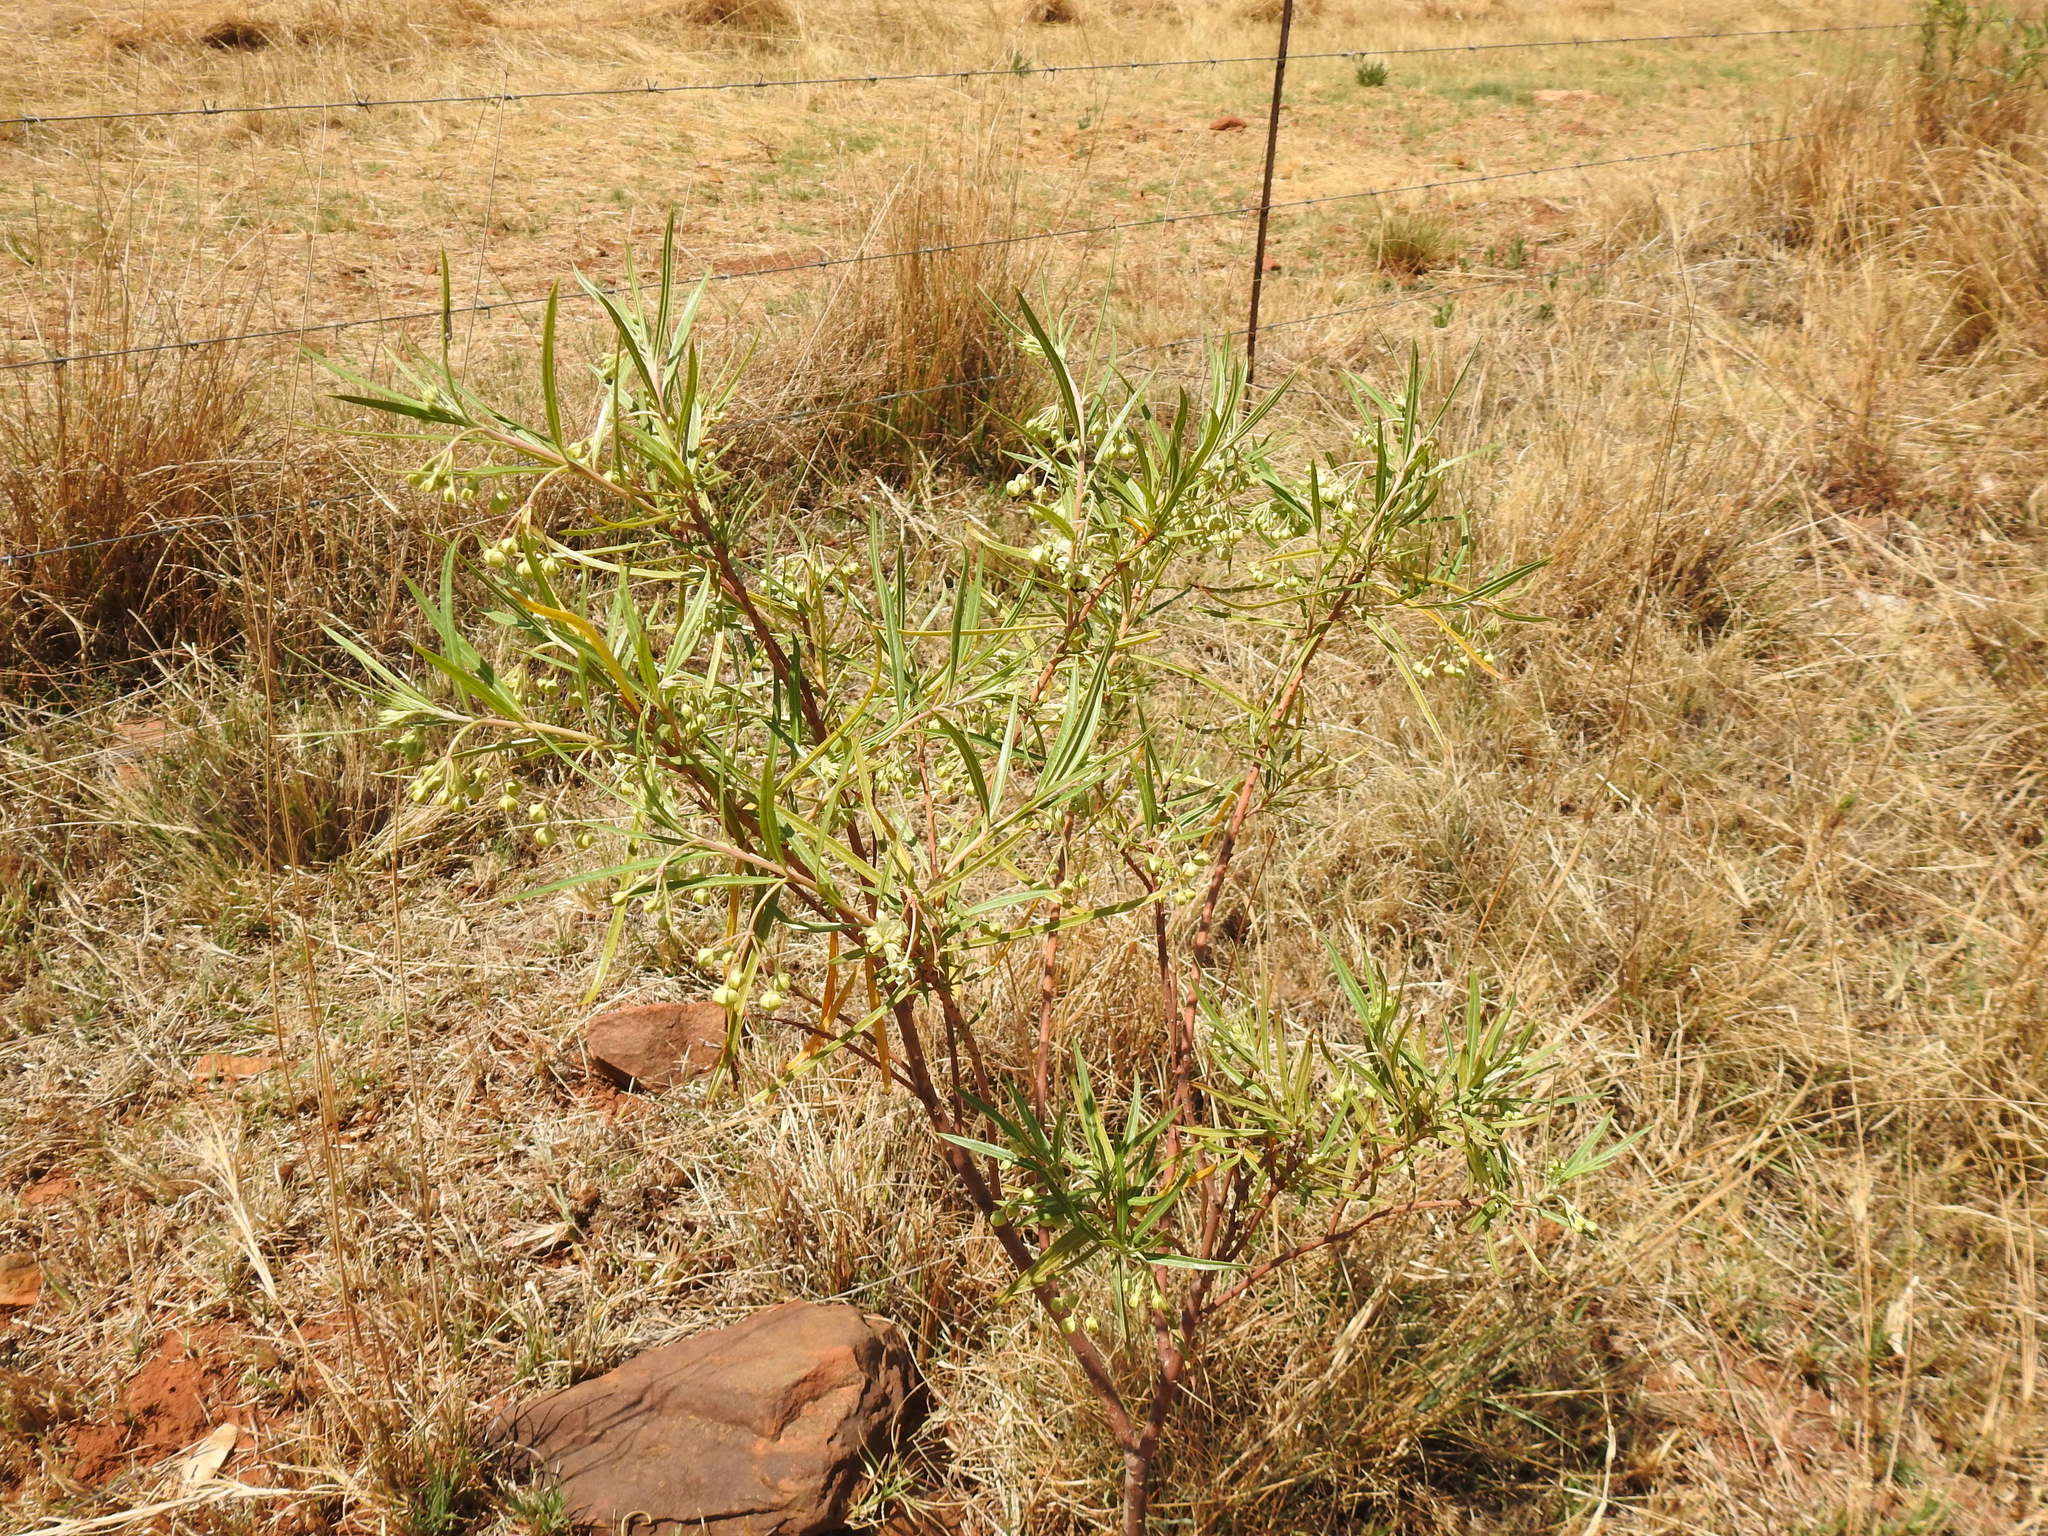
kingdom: Plantae
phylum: Tracheophyta
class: Magnoliopsida
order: Gentianales
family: Apocynaceae
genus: Gomphocarpus
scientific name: Gomphocarpus fruticosus
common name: Milkweed
